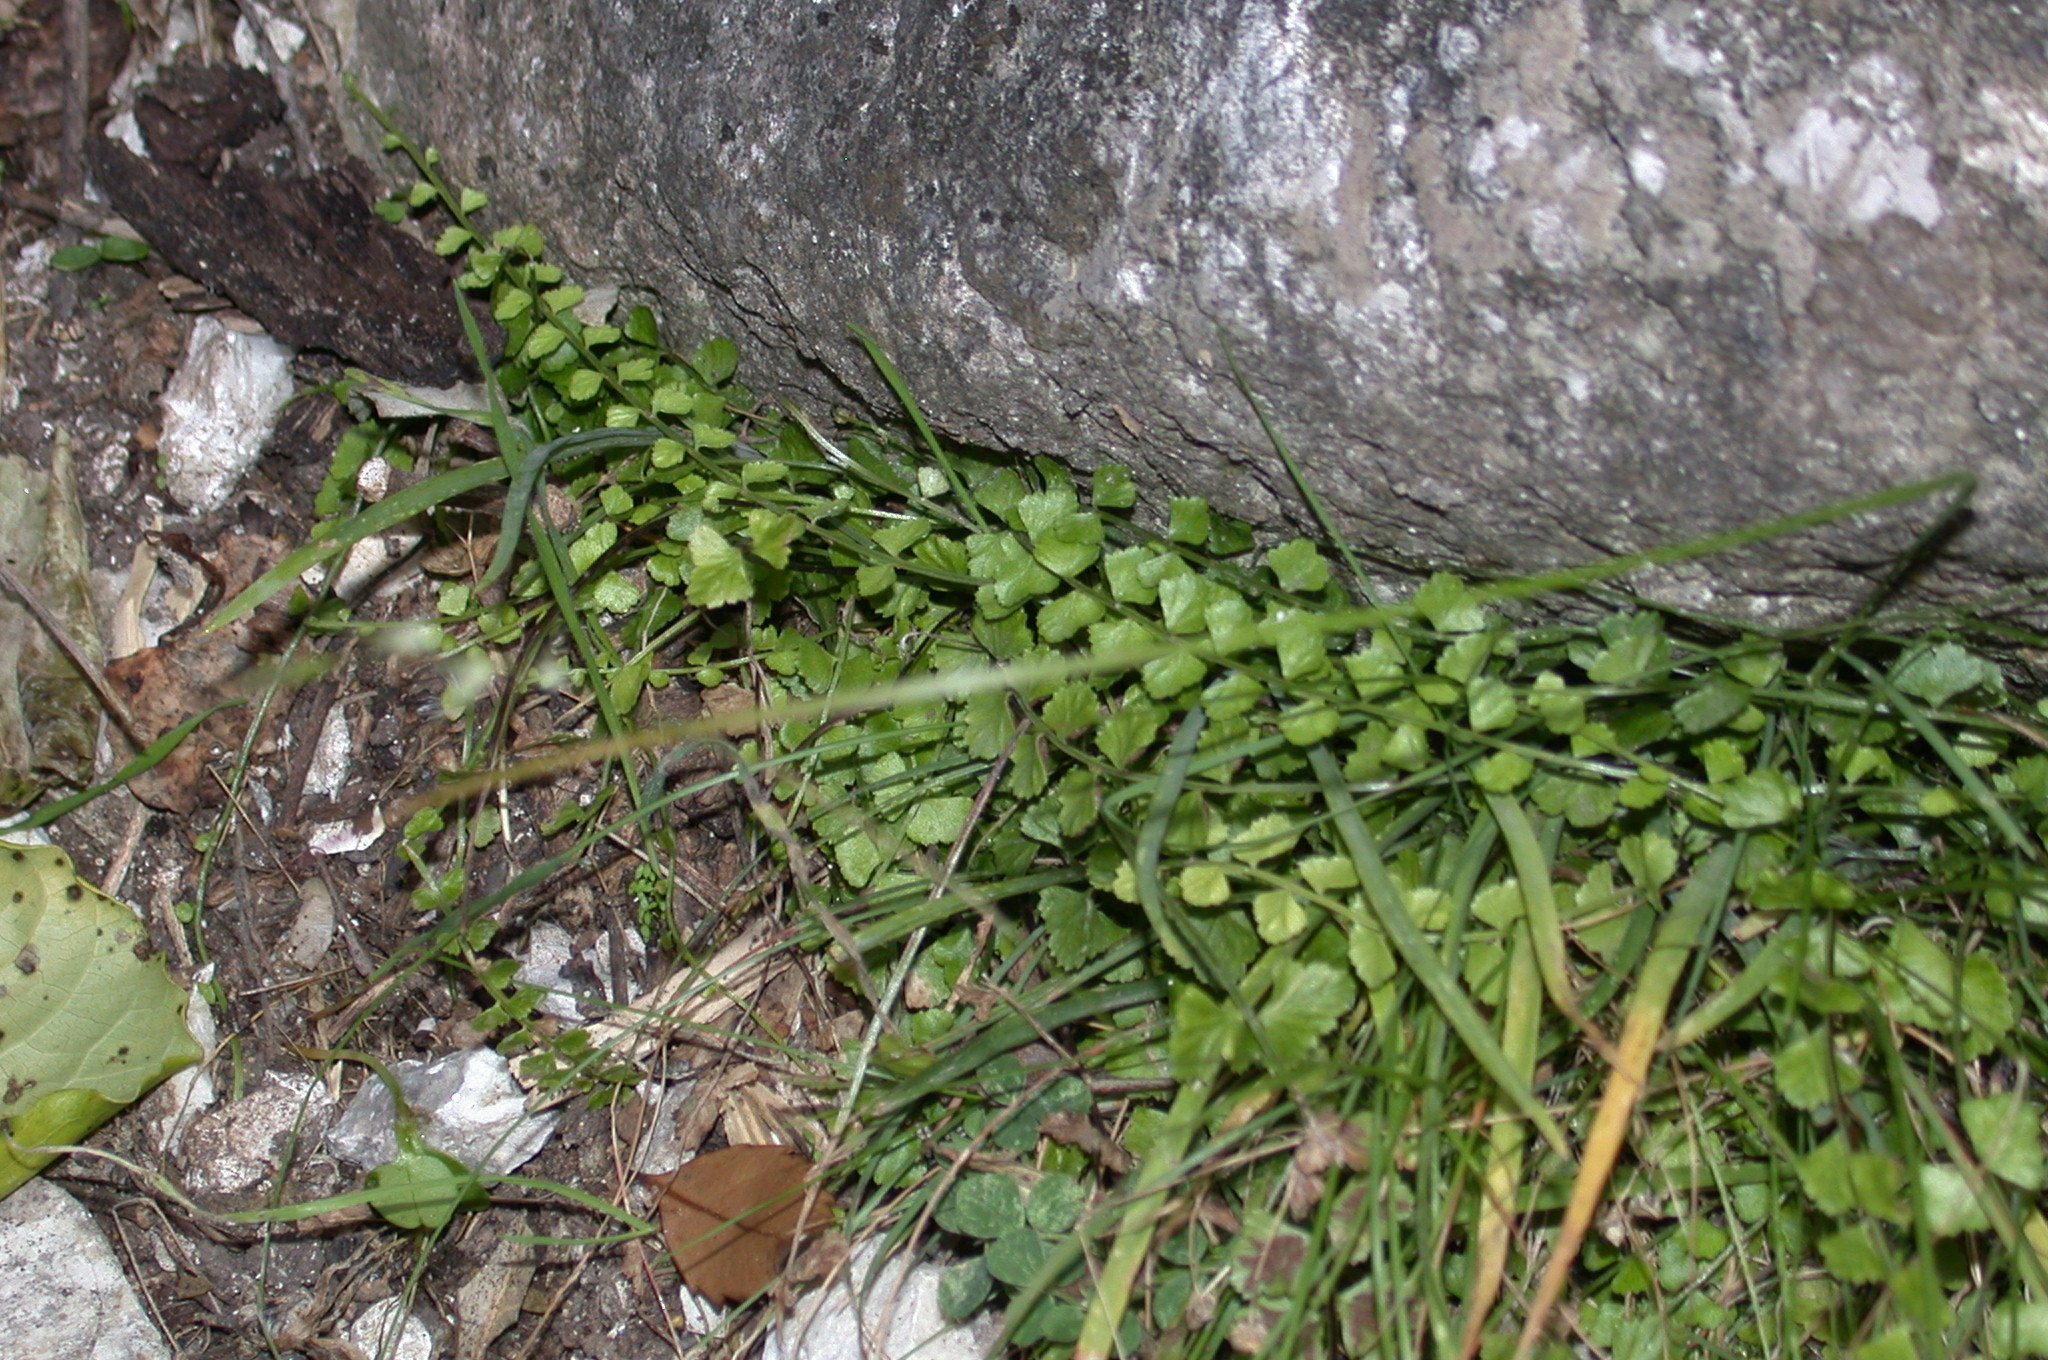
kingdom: Plantae
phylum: Tracheophyta
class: Polypodiopsida
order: Polypodiales
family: Aspleniaceae
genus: Asplenium
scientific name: Asplenium flabellifolium
